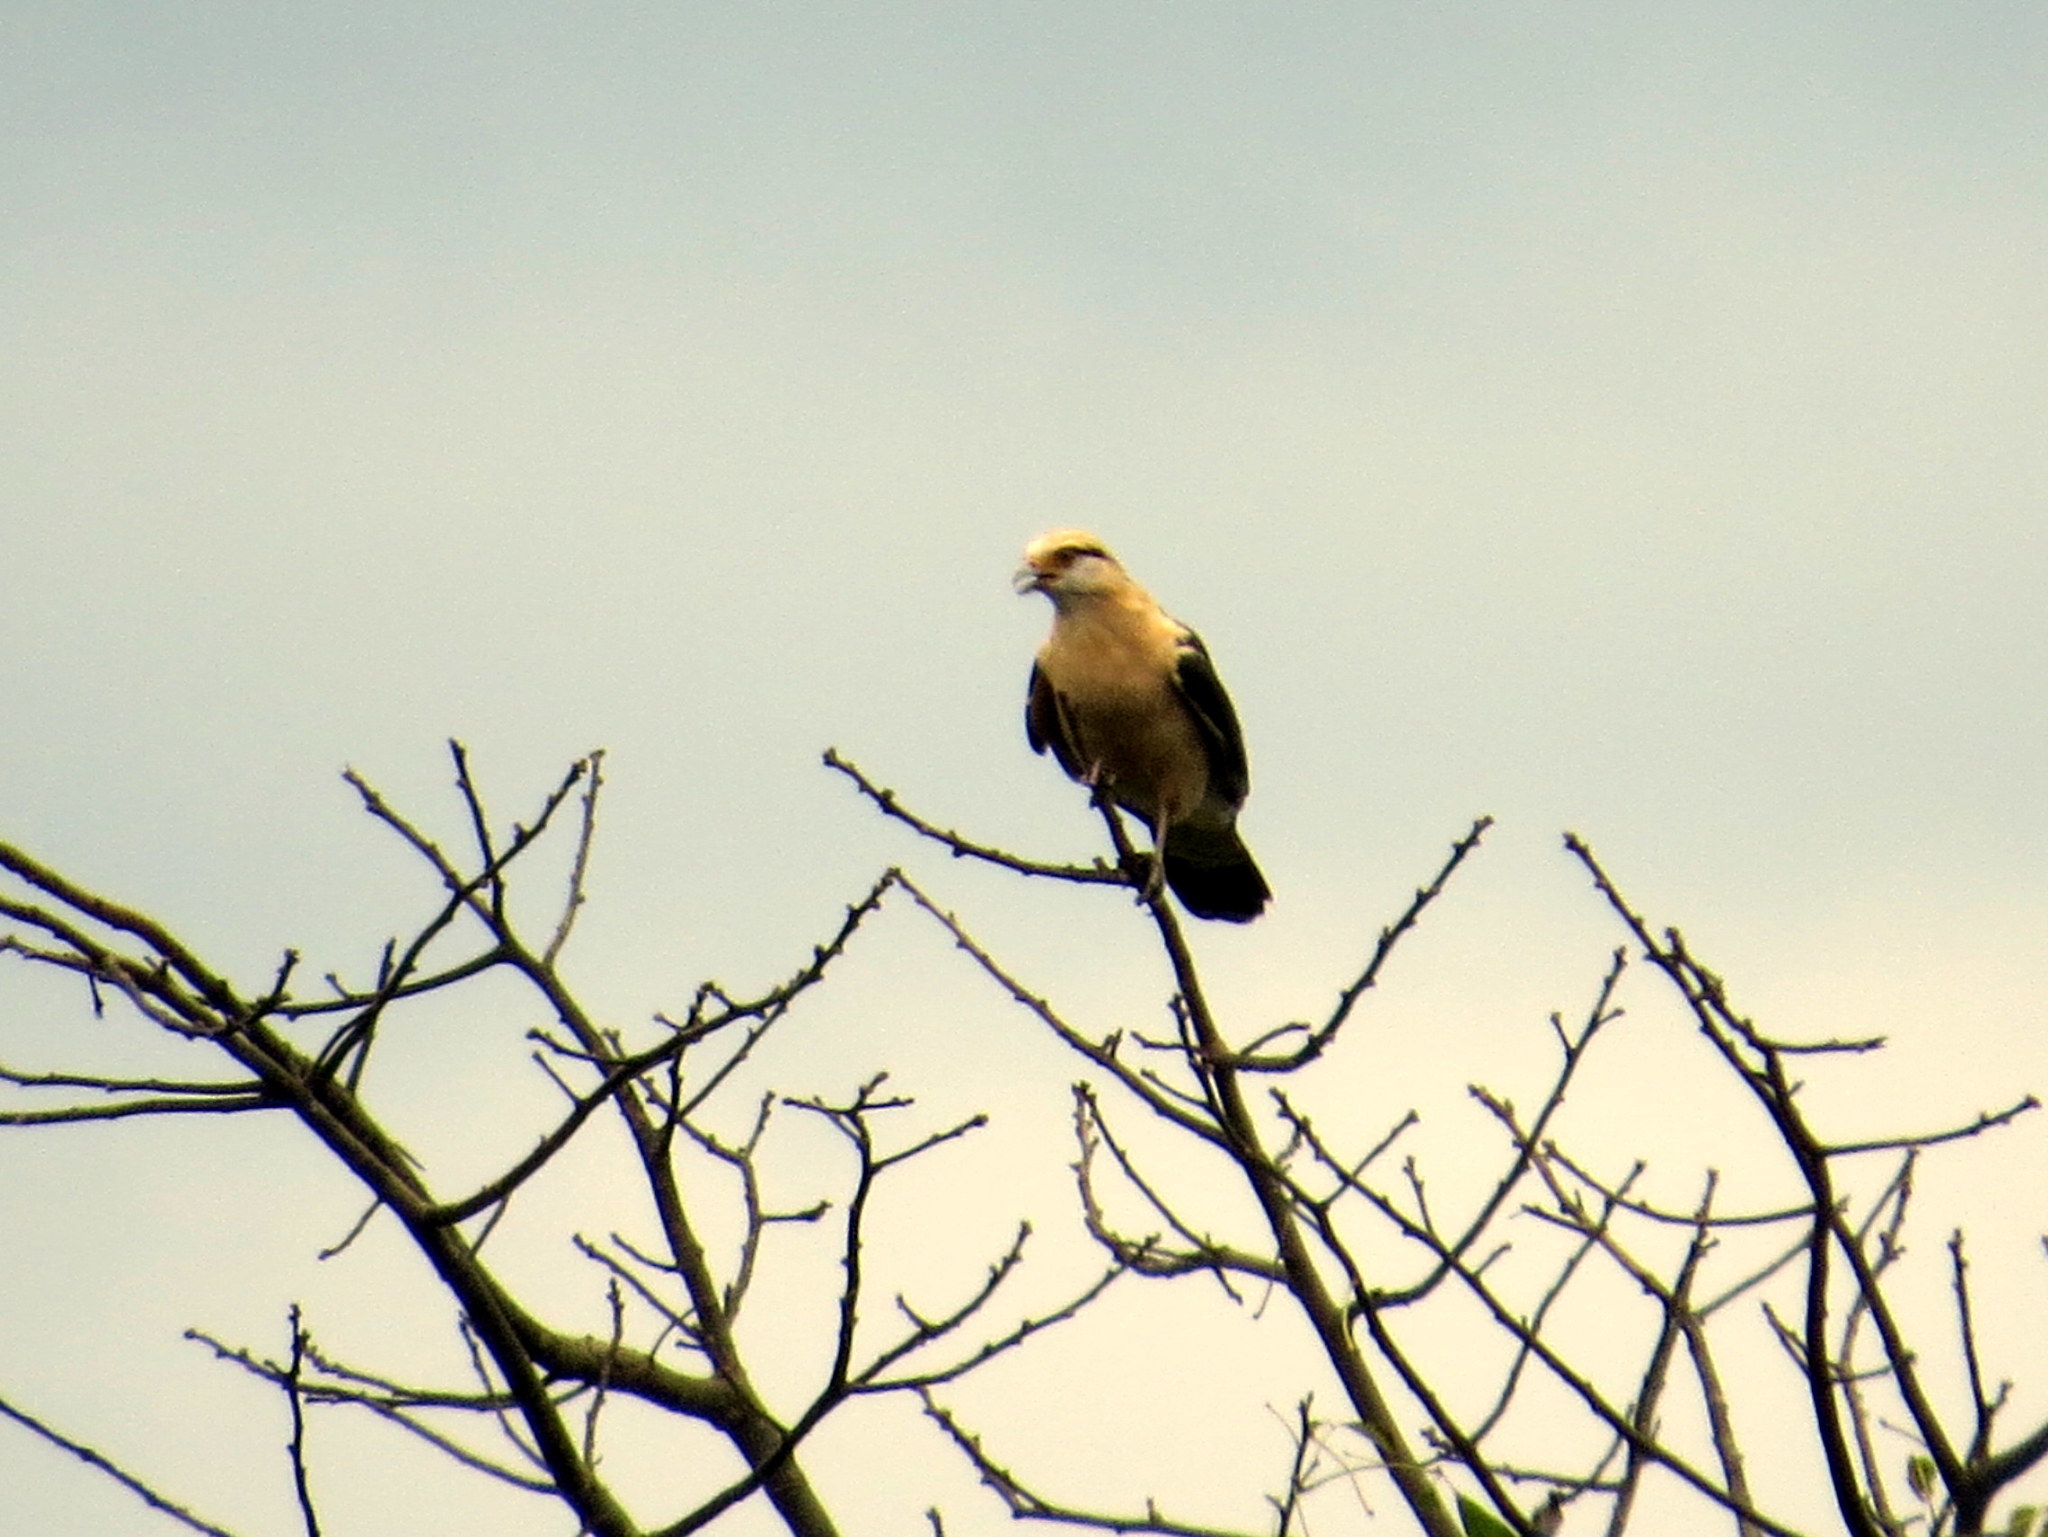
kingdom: Animalia
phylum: Chordata
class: Aves
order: Falconiformes
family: Falconidae
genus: Daptrius
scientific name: Daptrius
